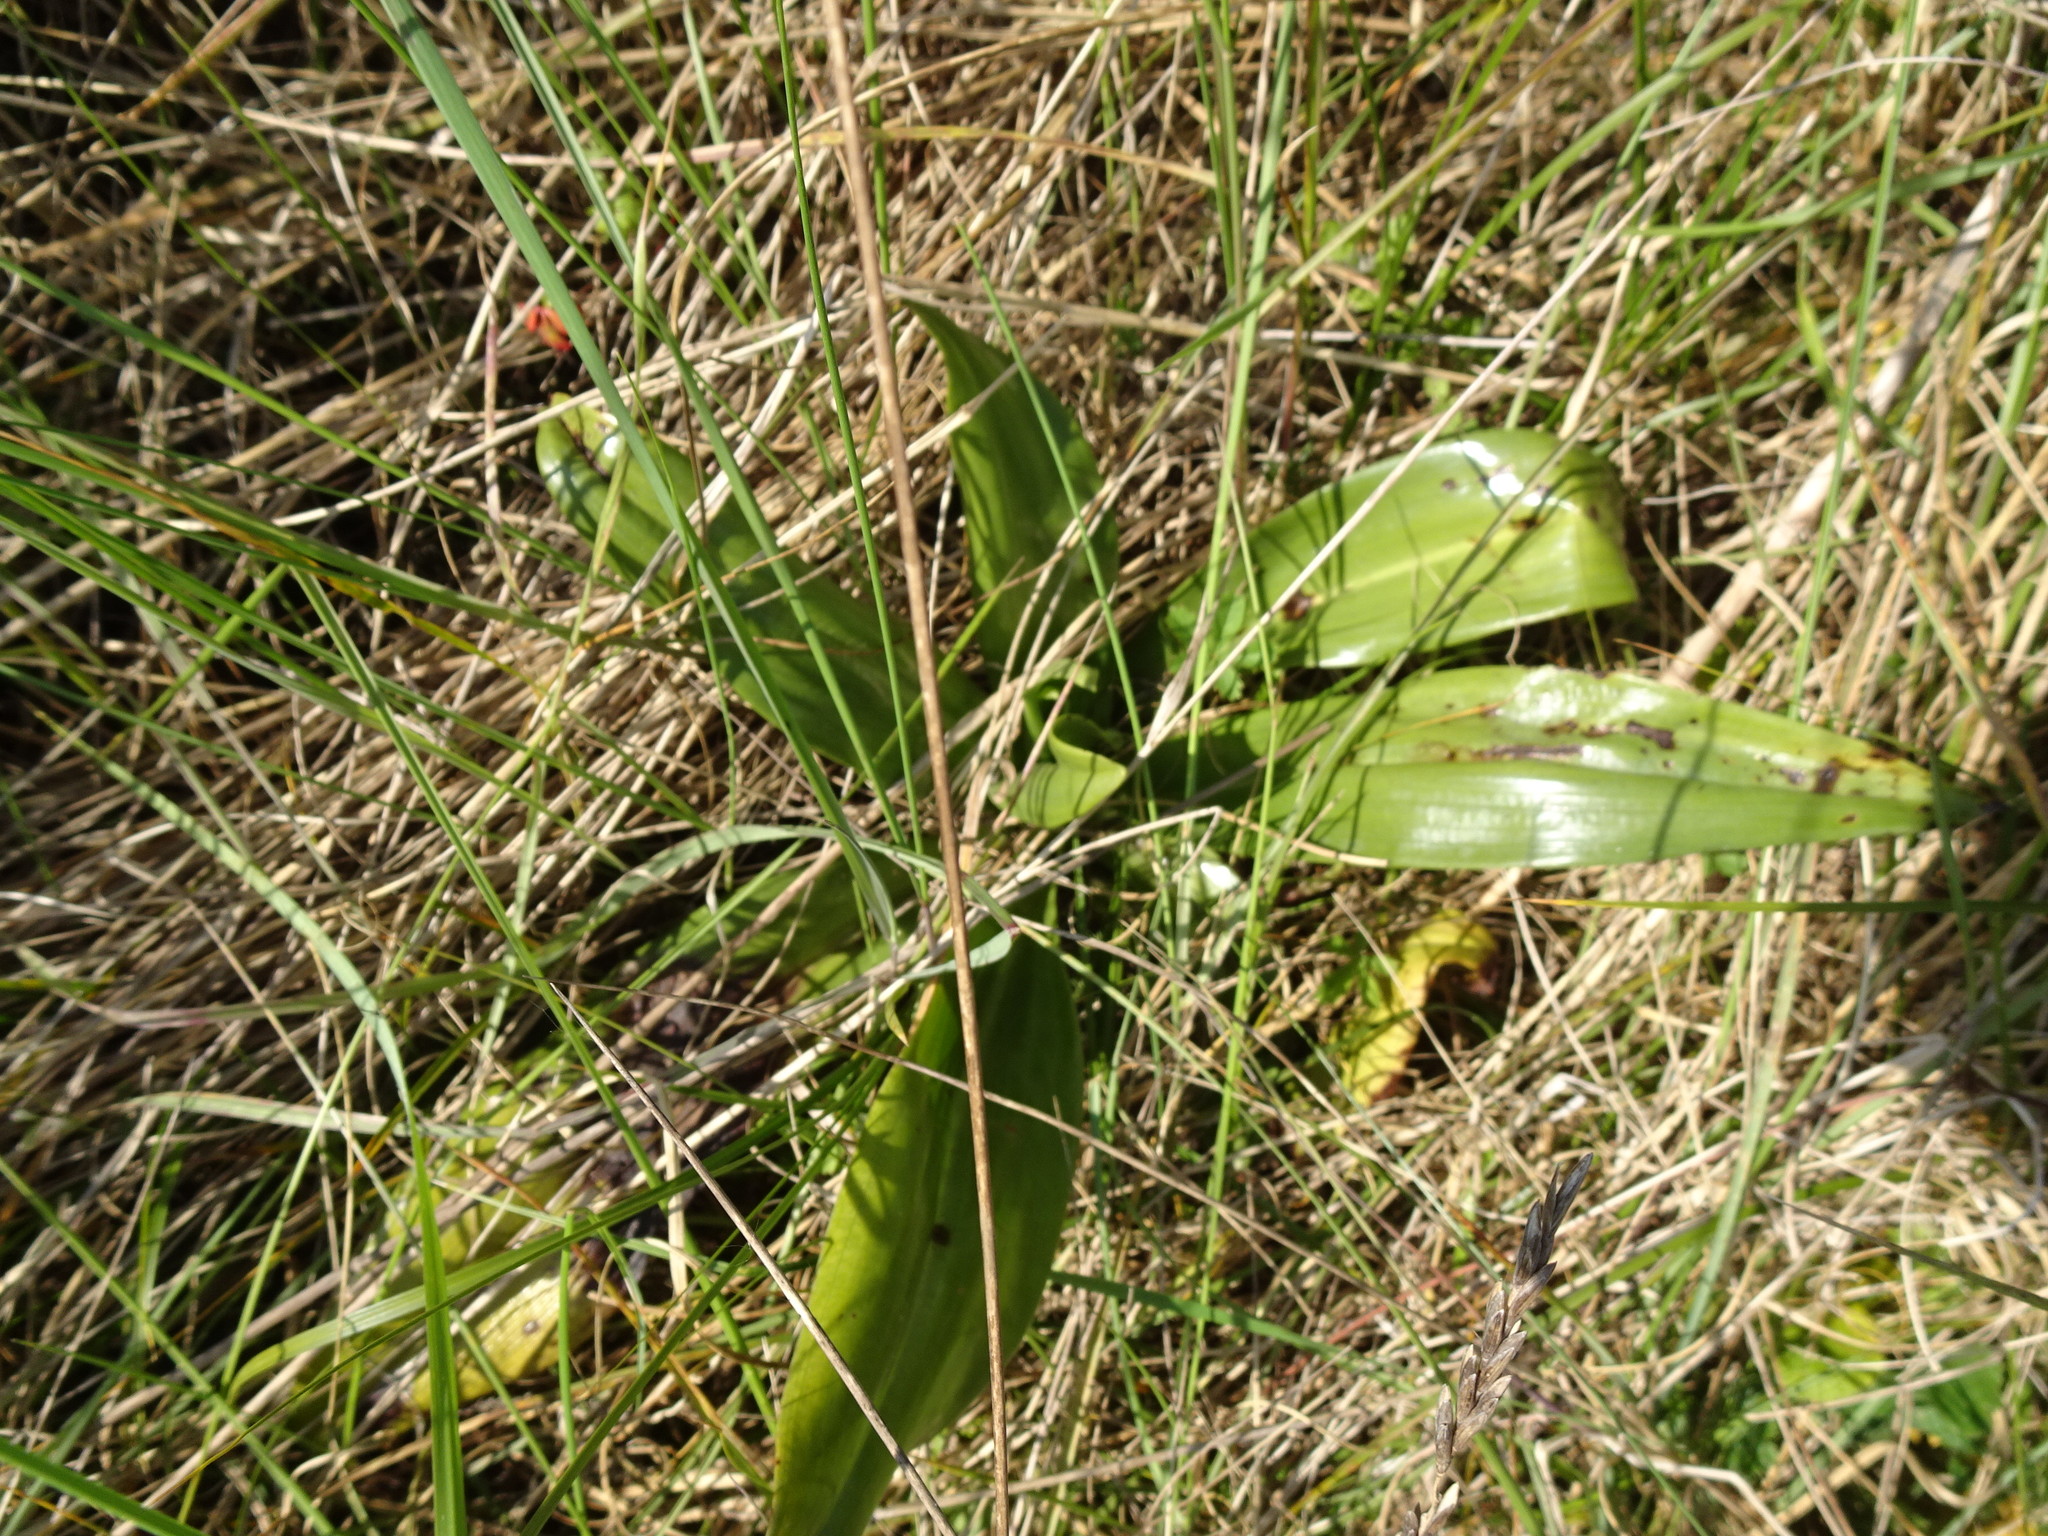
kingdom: Plantae
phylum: Tracheophyta
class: Liliopsida
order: Asparagales
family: Orchidaceae
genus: Himantoglossum
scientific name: Himantoglossum hircinum
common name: Lizard orchid
